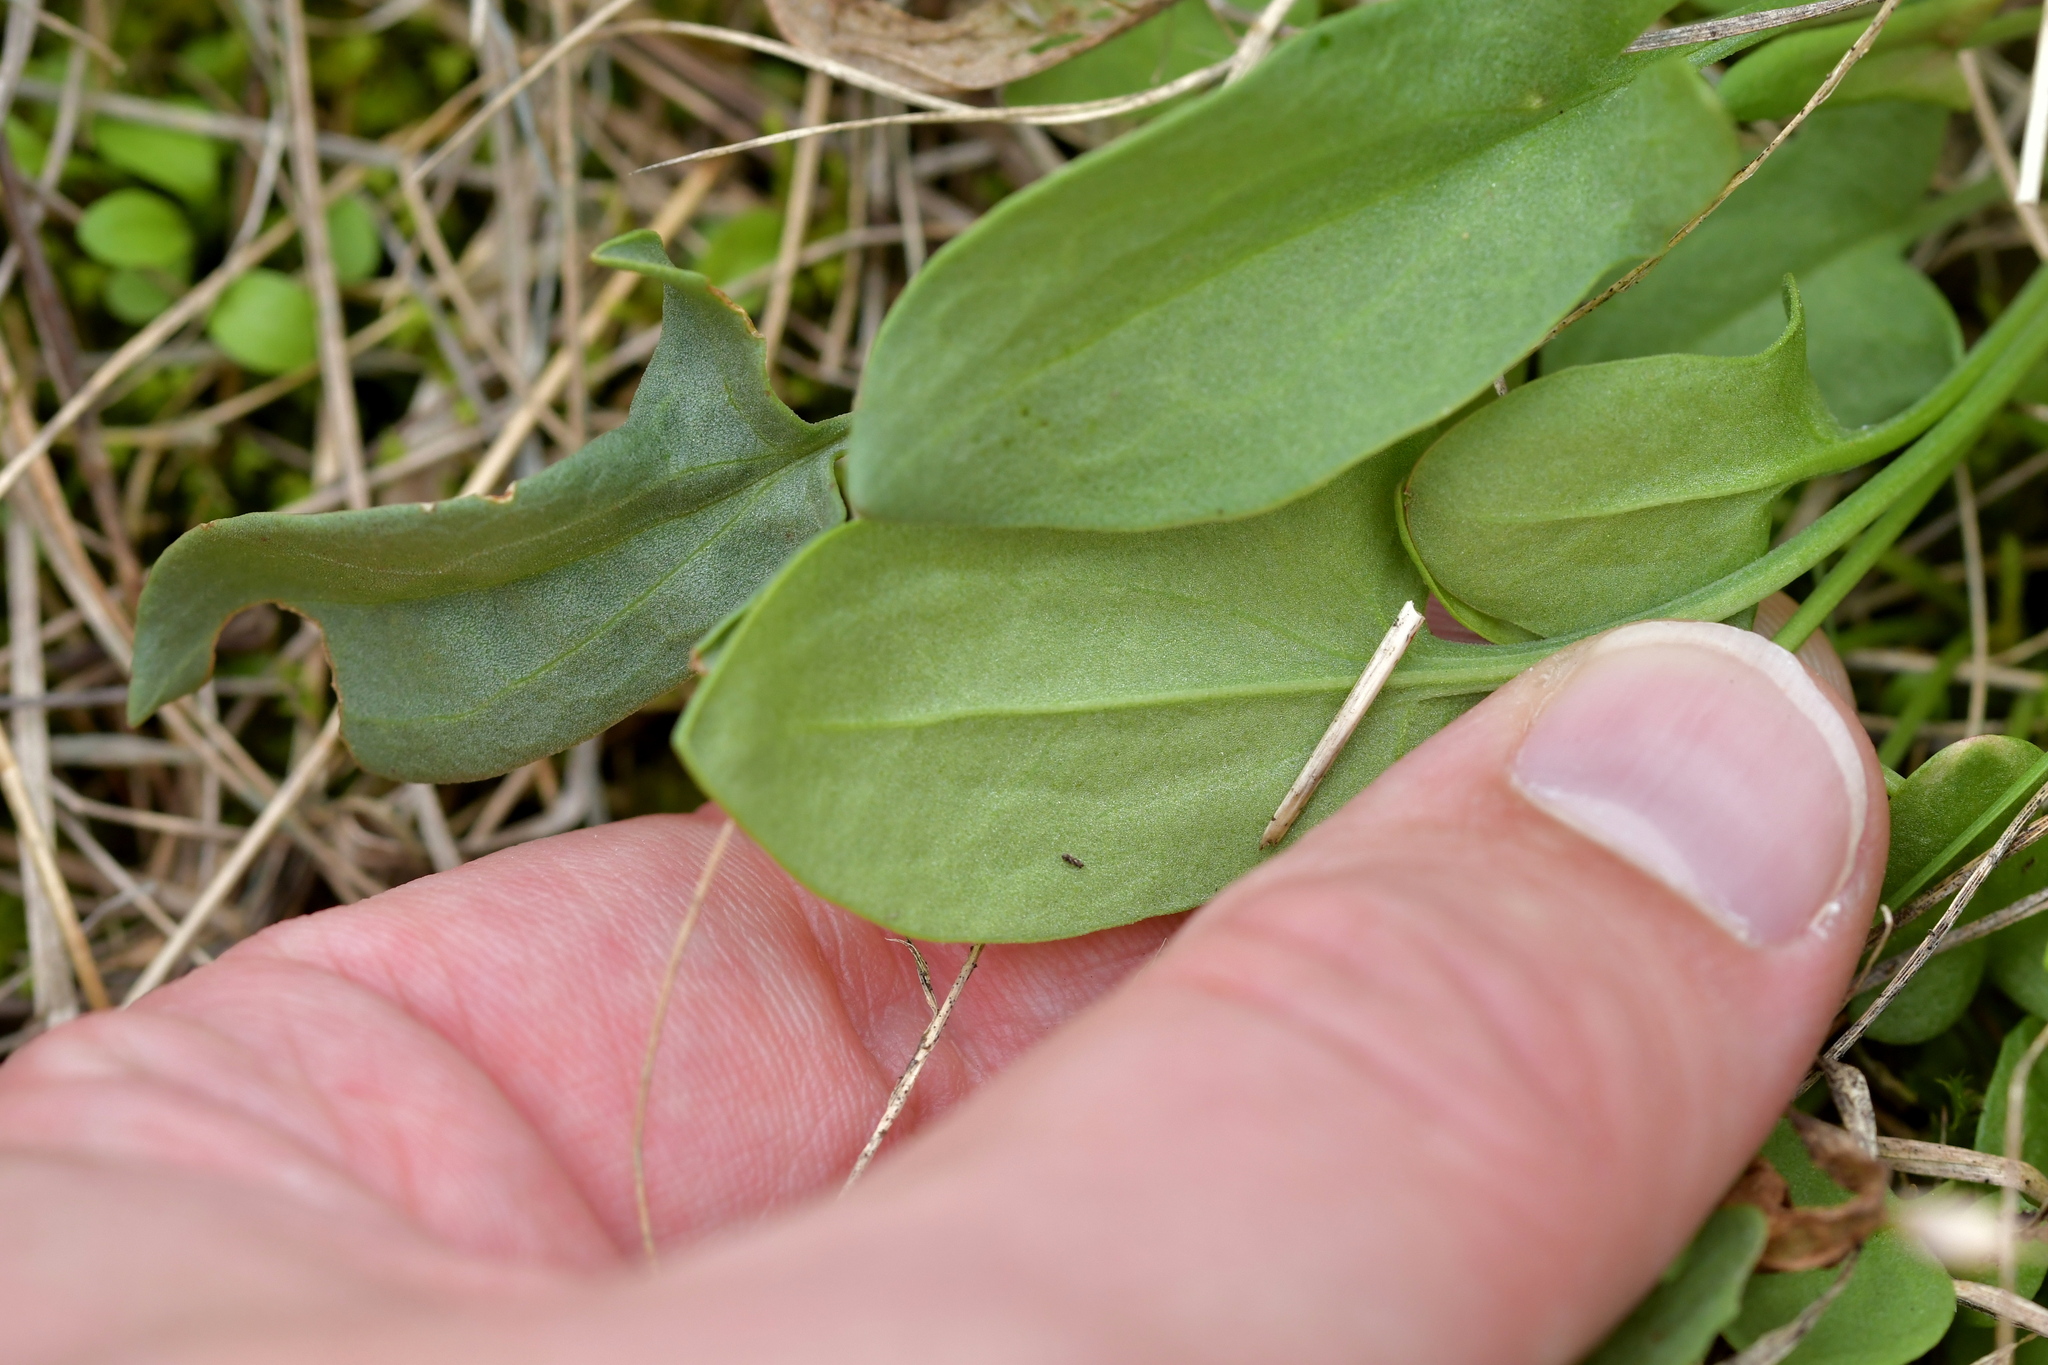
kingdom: Plantae
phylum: Tracheophyta
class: Magnoliopsida
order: Caryophyllales
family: Polygonaceae
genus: Rumex
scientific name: Rumex acetosella
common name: Common sheep sorrel
